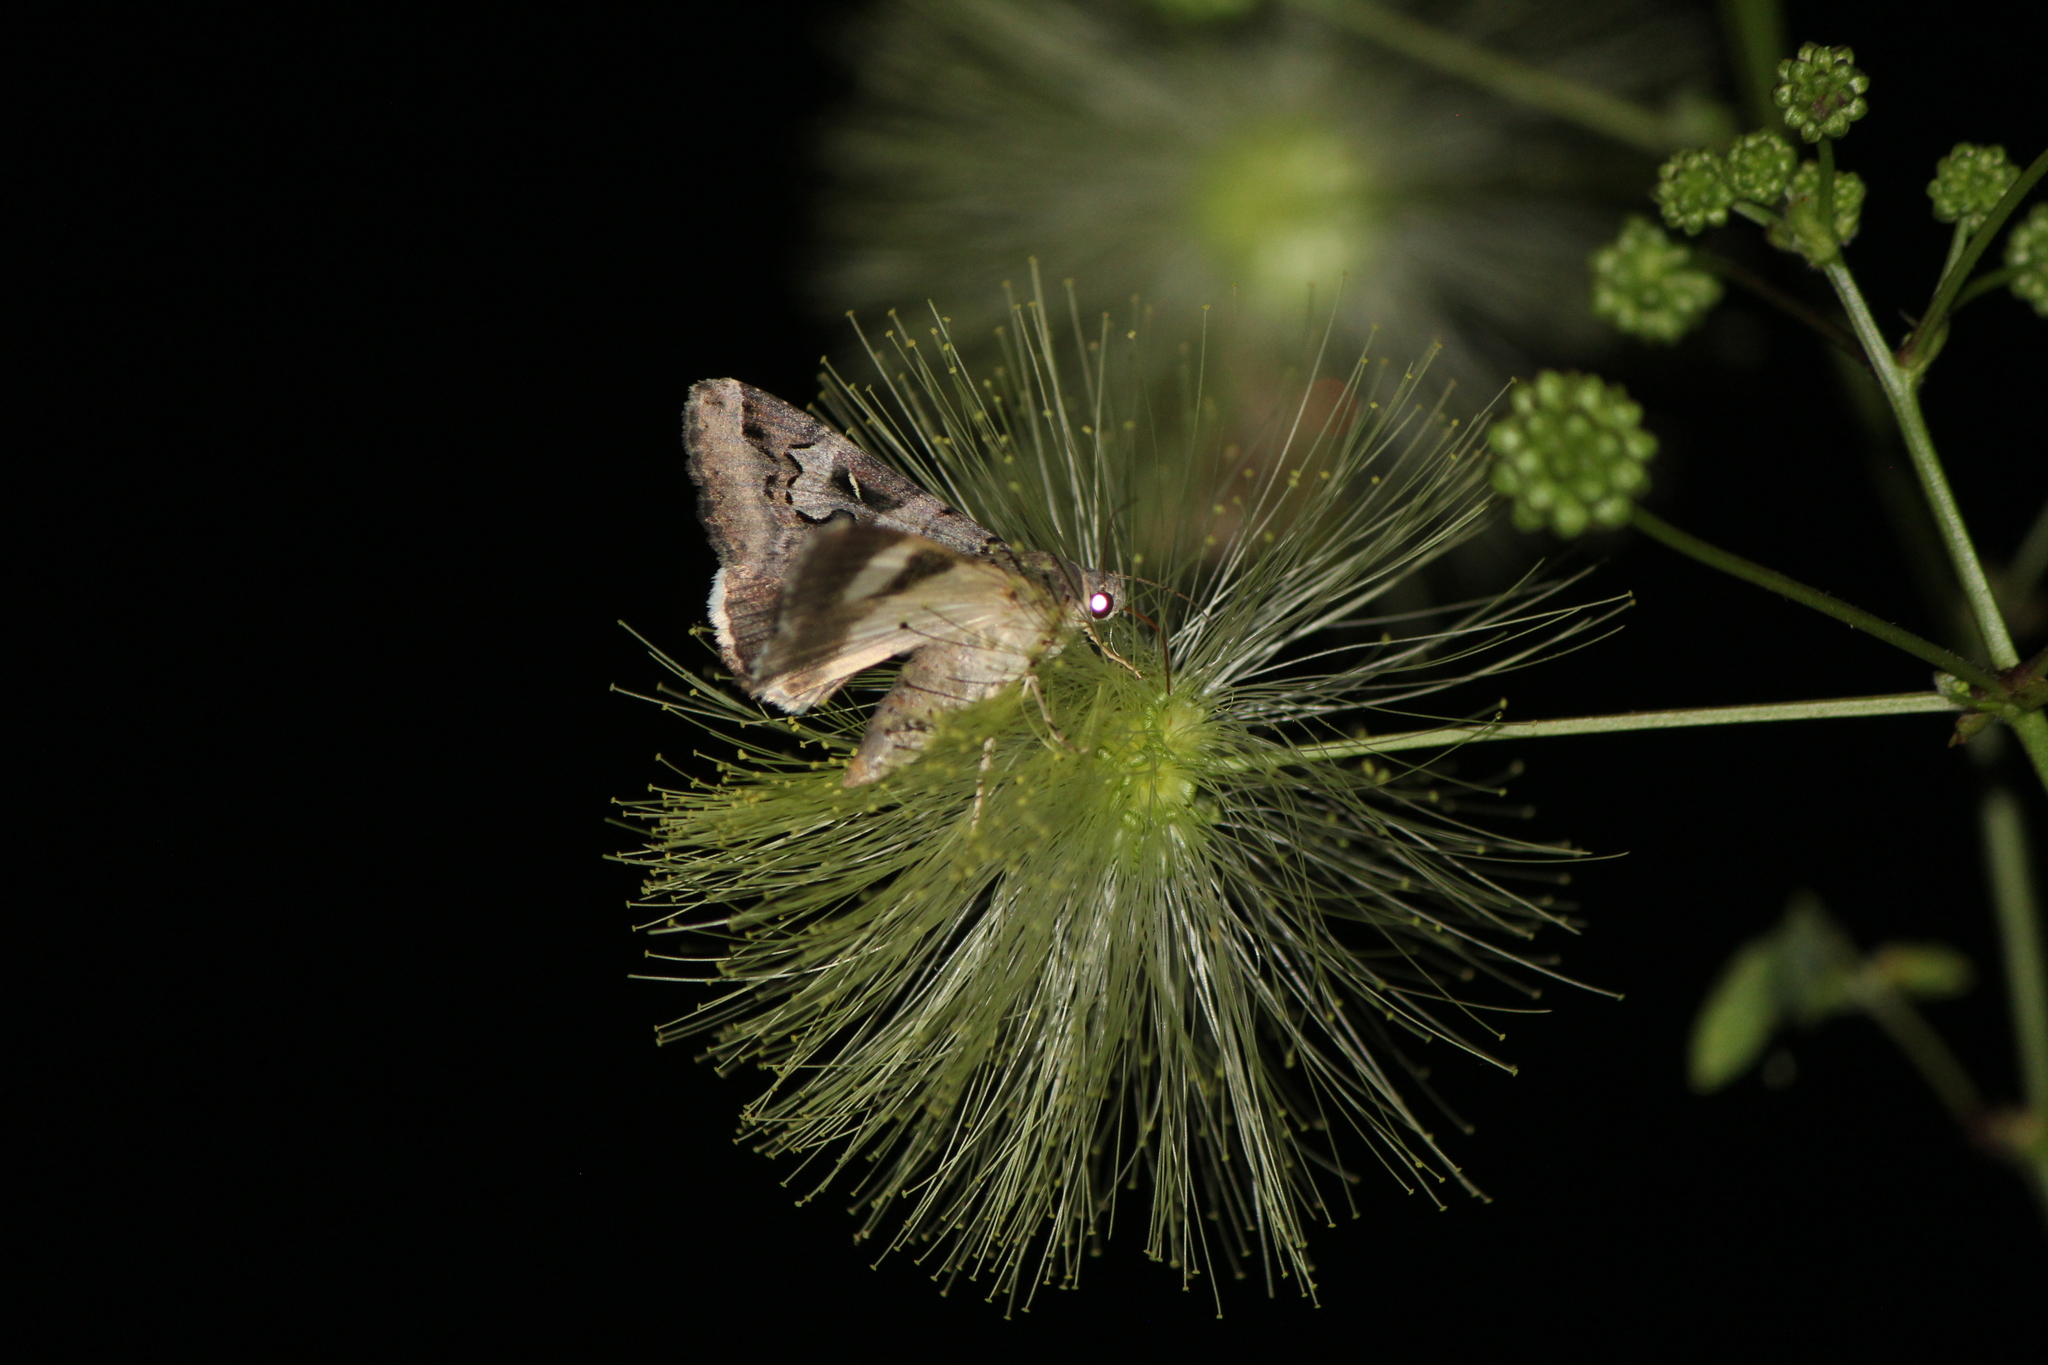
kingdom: Animalia
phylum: Arthropoda
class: Insecta
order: Lepidoptera
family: Erebidae
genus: Melipotis
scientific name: Melipotis indomita
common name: Moth
